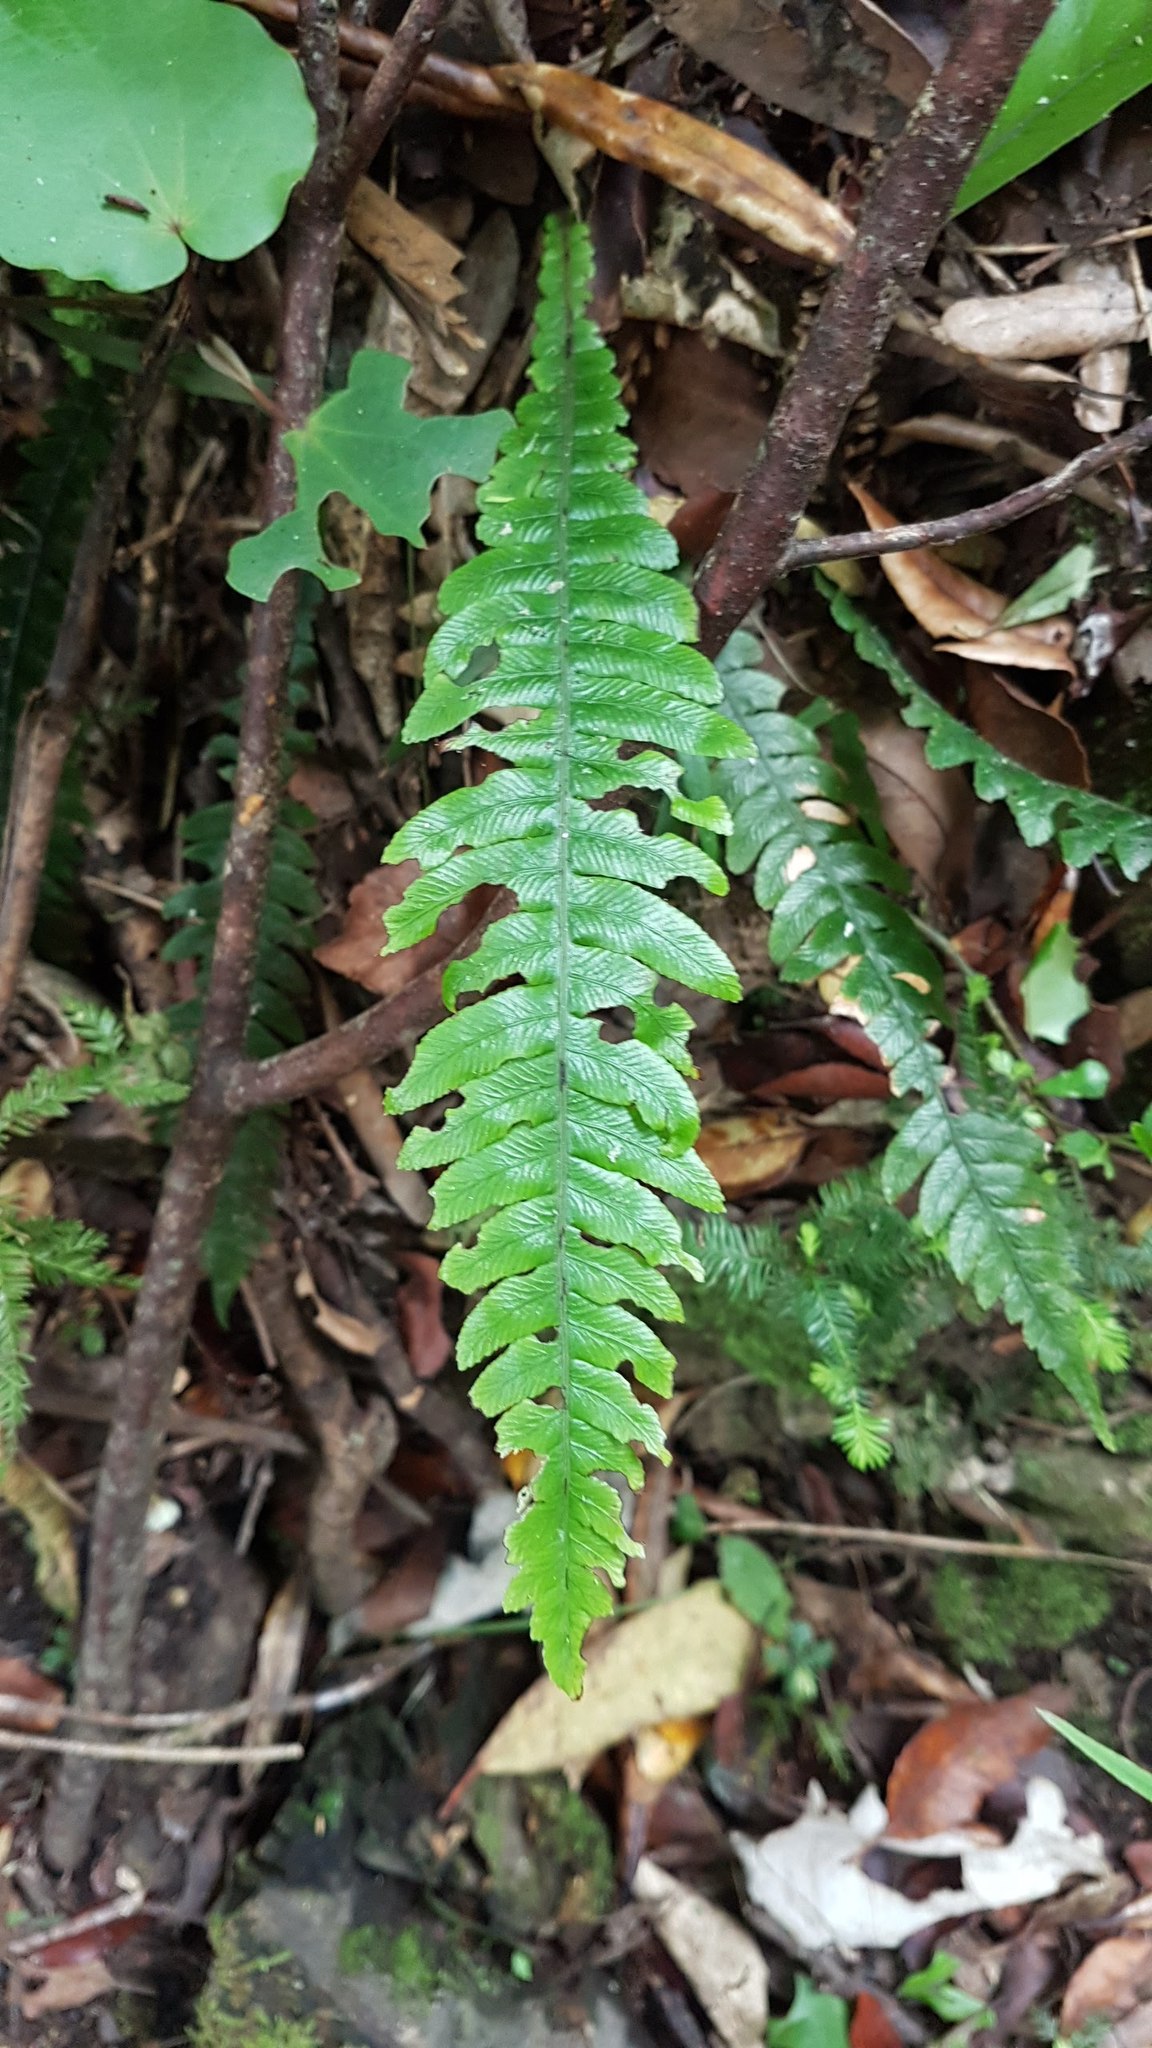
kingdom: Plantae
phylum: Tracheophyta
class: Polypodiopsida
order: Polypodiales
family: Blechnaceae
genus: Austroblechnum
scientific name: Austroblechnum lanceolatum
